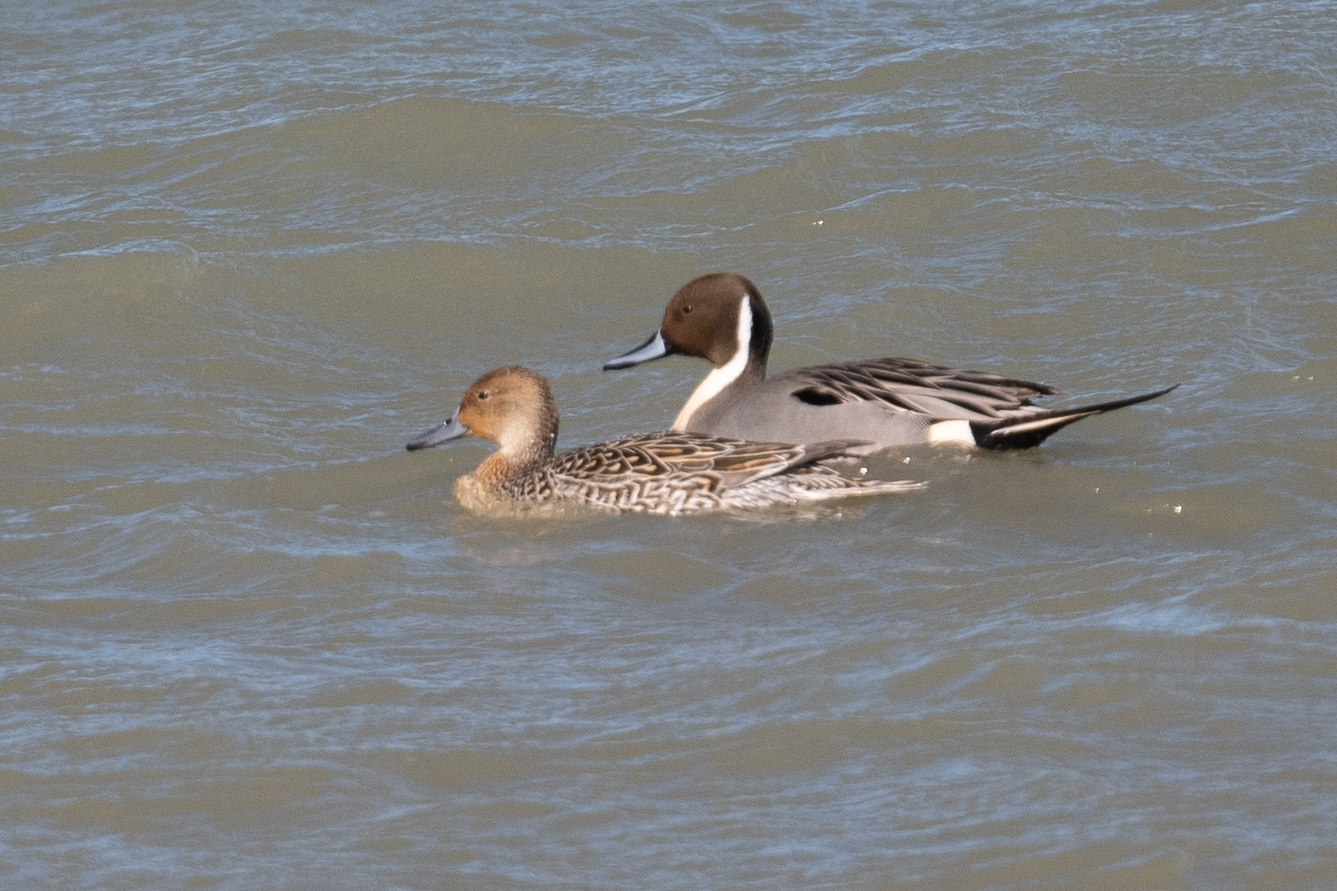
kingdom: Animalia
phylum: Chordata
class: Aves
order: Anseriformes
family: Anatidae
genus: Anas
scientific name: Anas acuta
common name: Northern pintail
